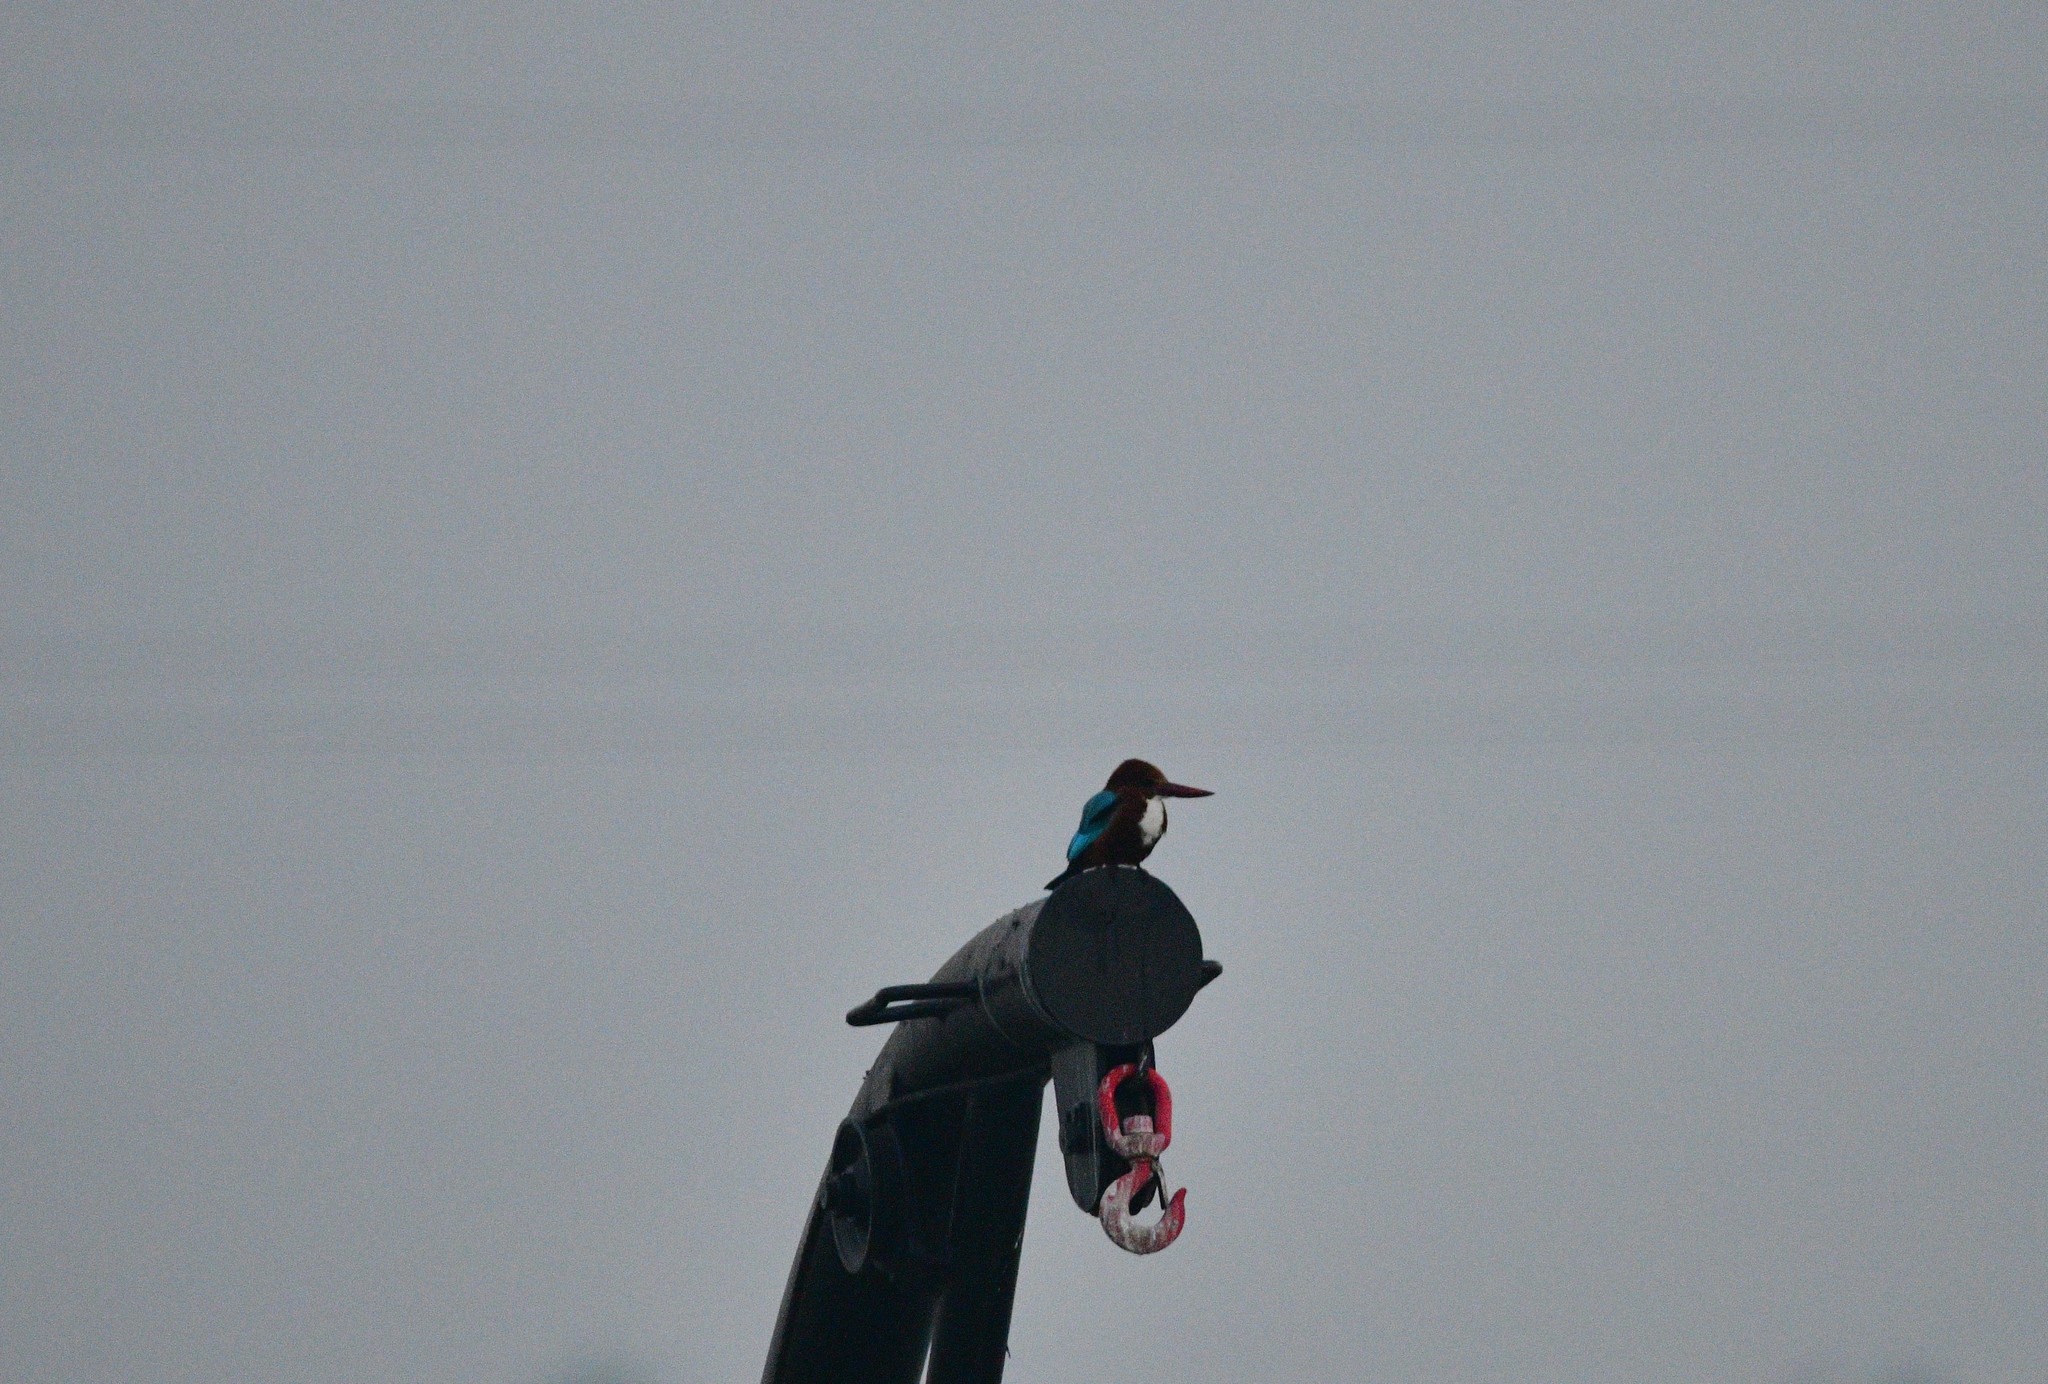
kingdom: Animalia
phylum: Chordata
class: Aves
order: Coraciiformes
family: Alcedinidae
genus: Halcyon
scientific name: Halcyon smyrnensis
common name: White-throated kingfisher
